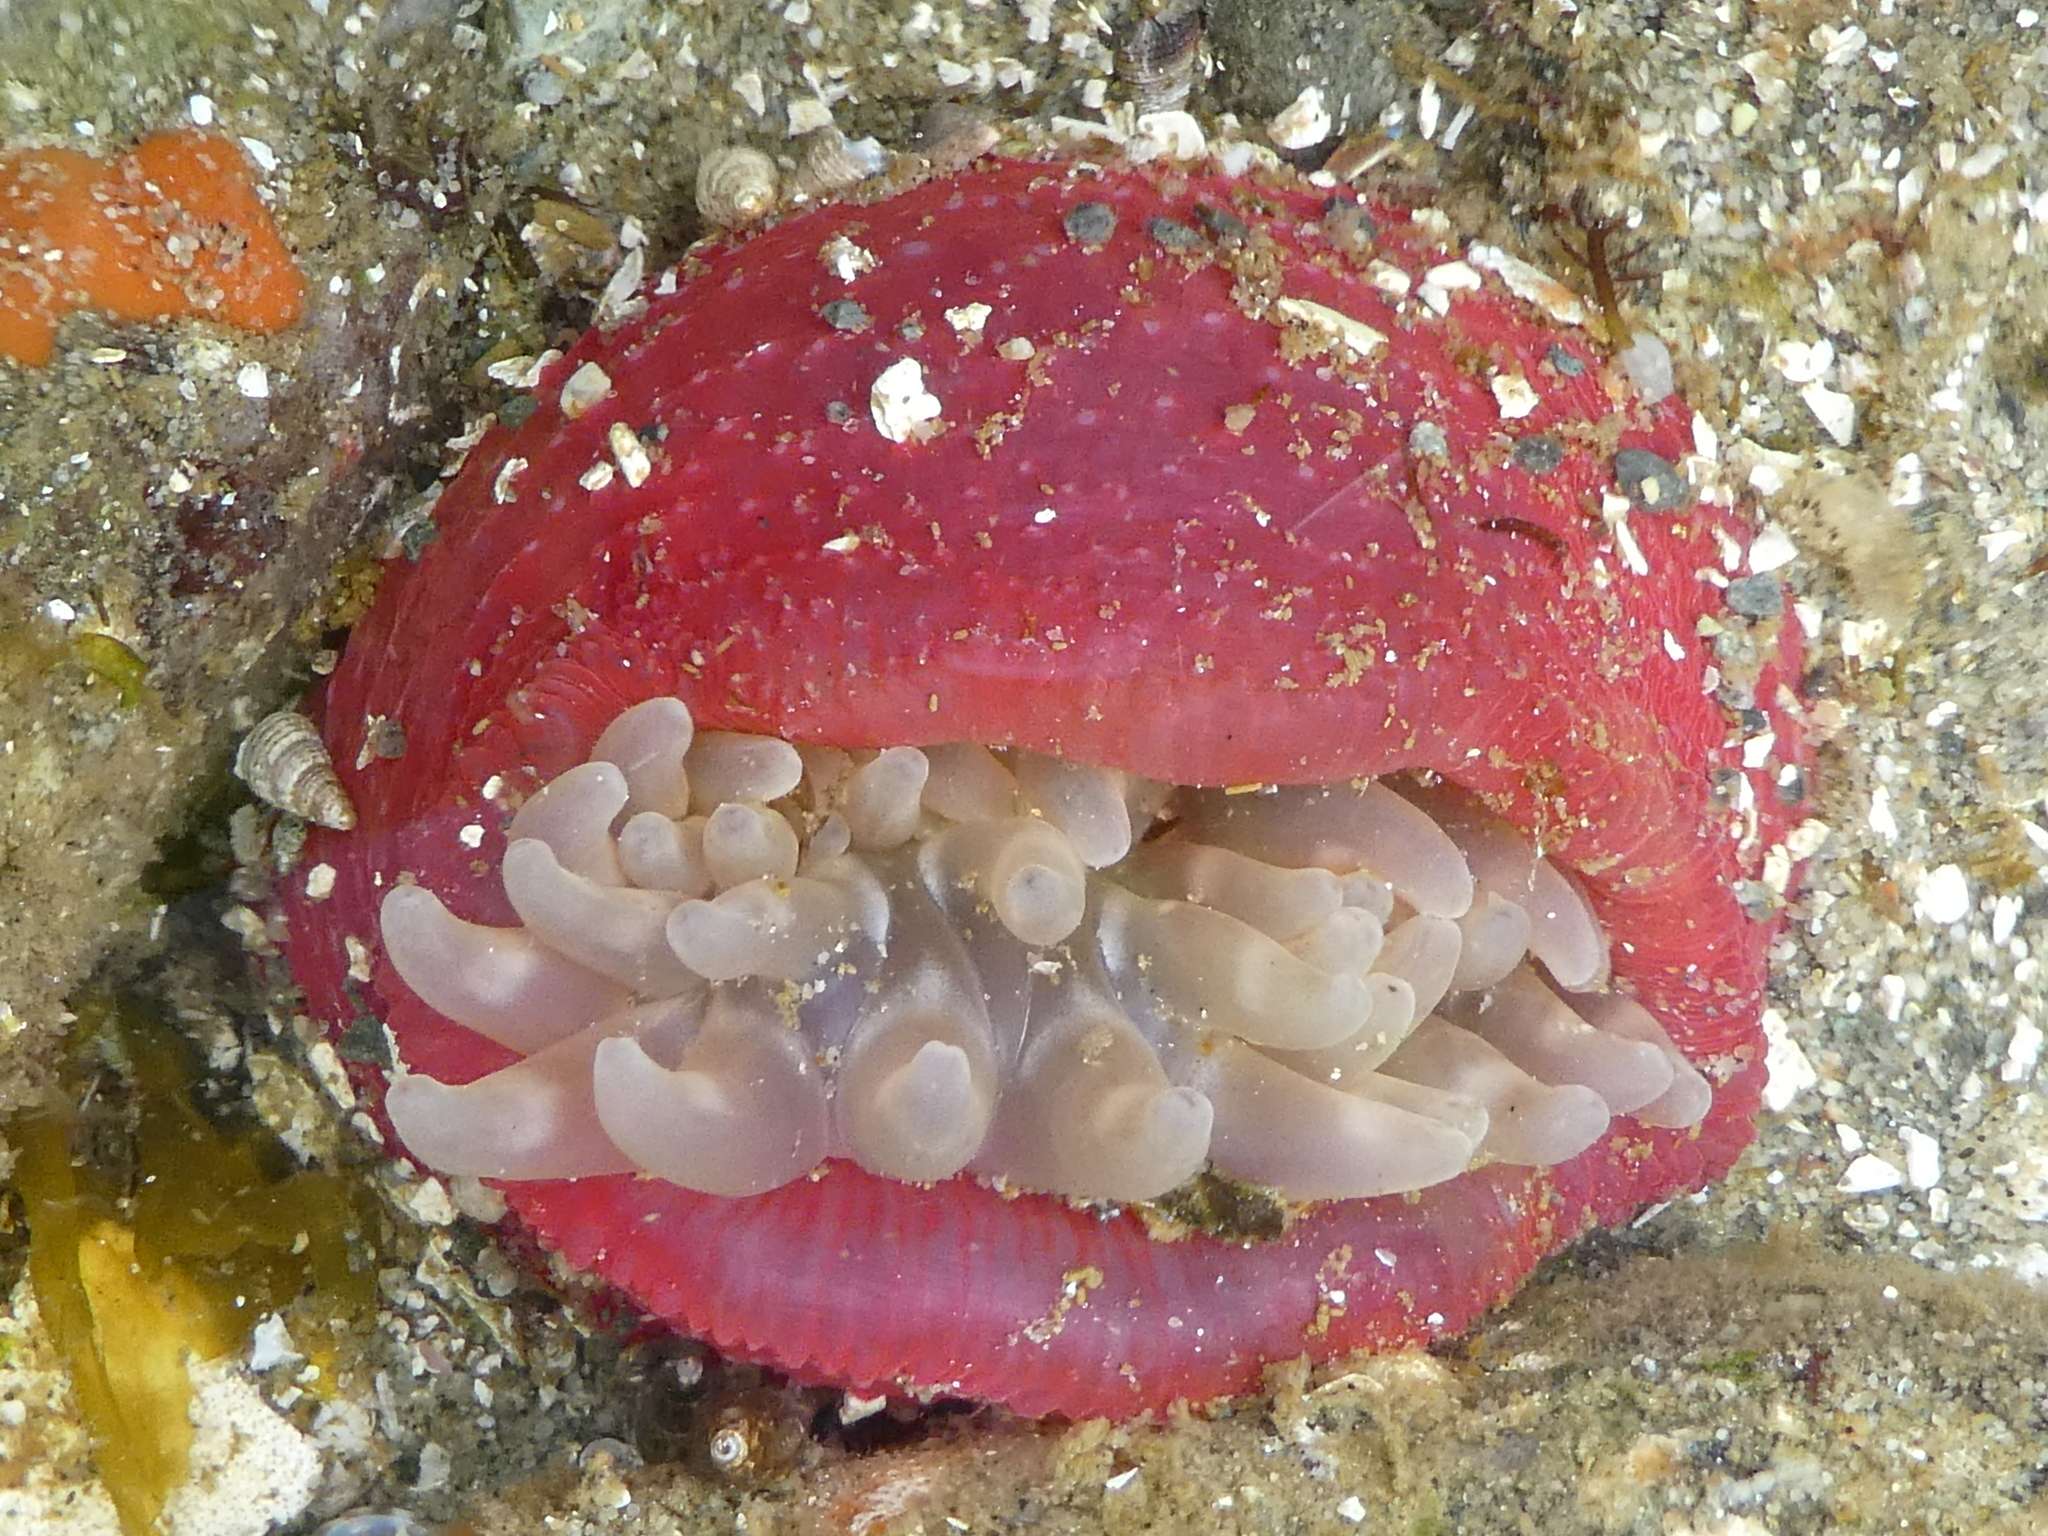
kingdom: Animalia
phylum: Cnidaria
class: Anthozoa
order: Actiniaria
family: Actiniidae
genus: Urticina
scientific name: Urticina clandestina
